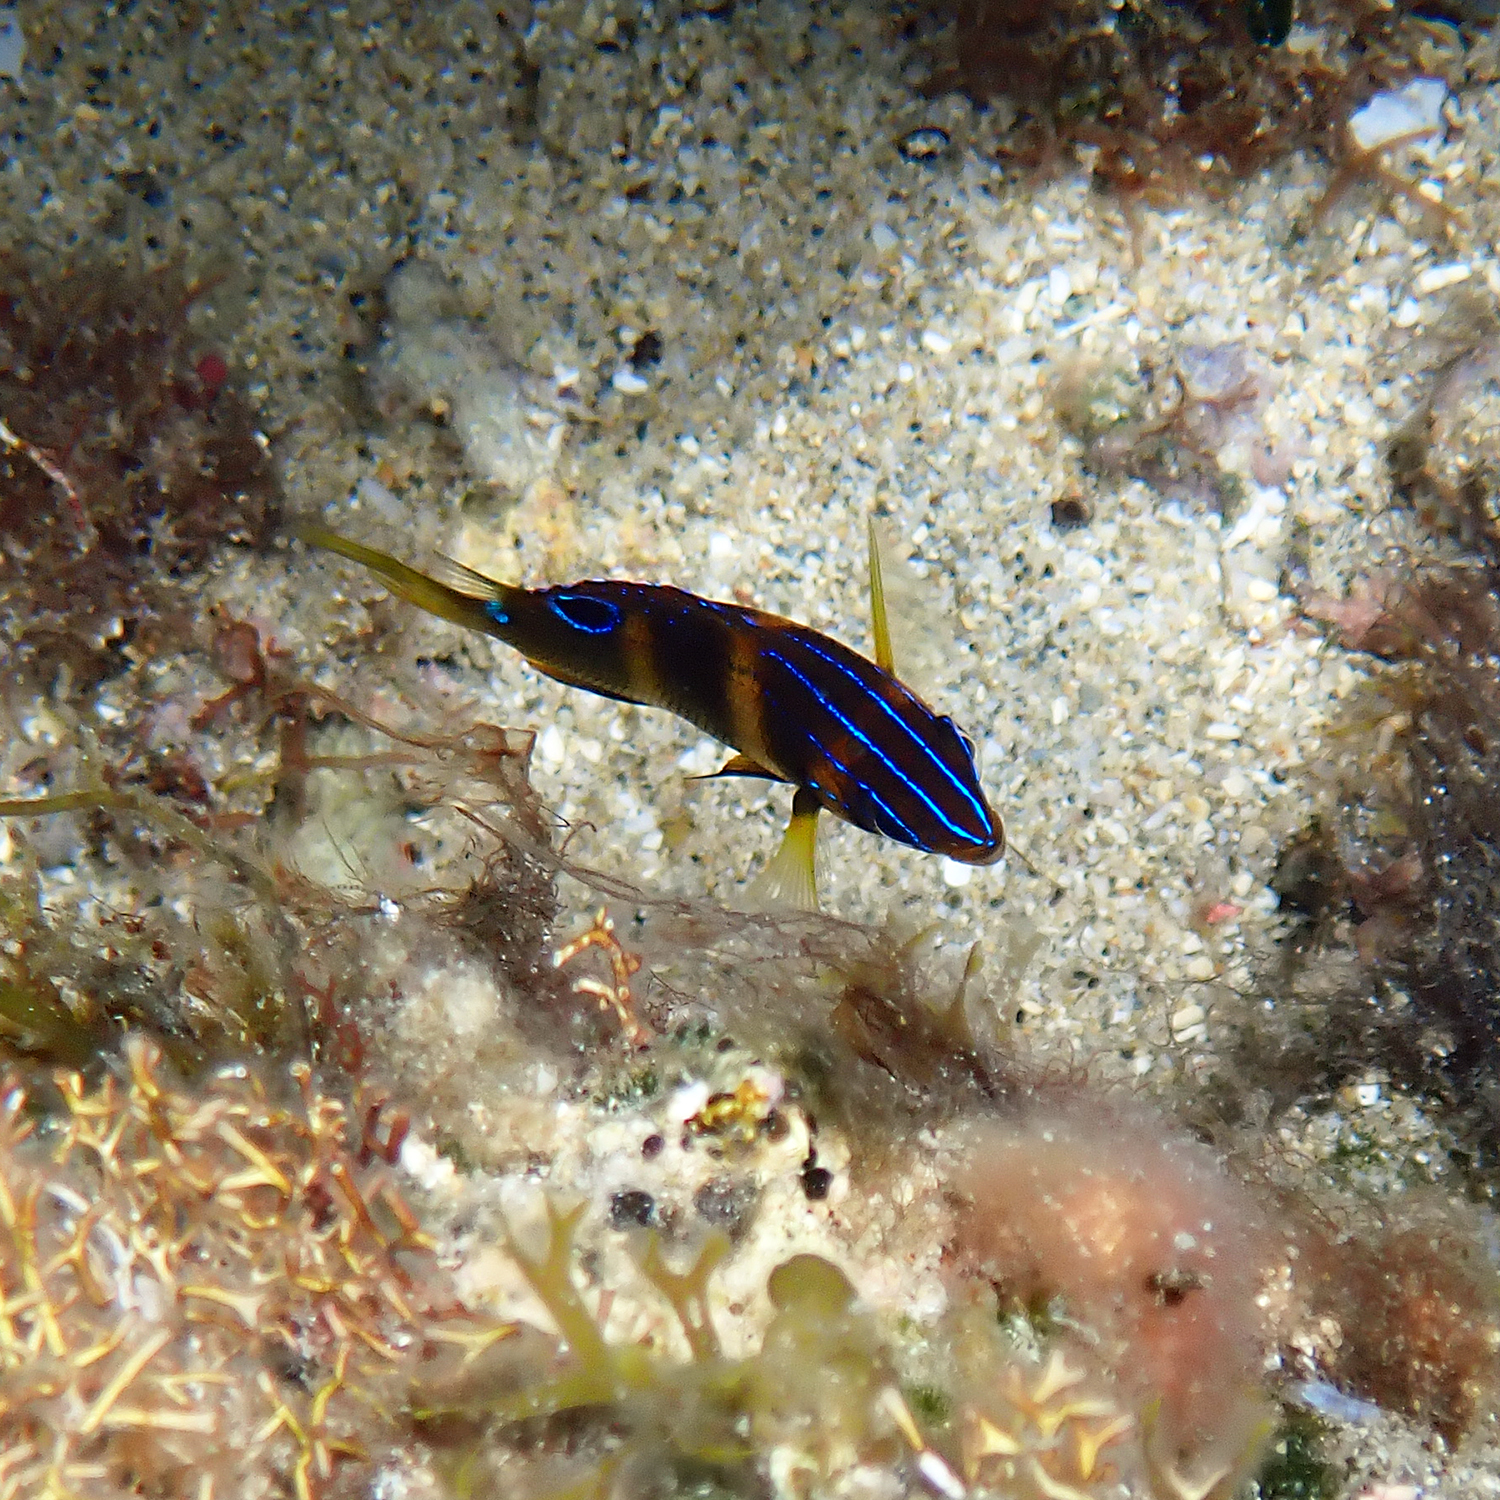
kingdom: Animalia
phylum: Chordata
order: Perciformes
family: Pomacentridae
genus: Parma
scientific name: Parma polylepis
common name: Banded parma
